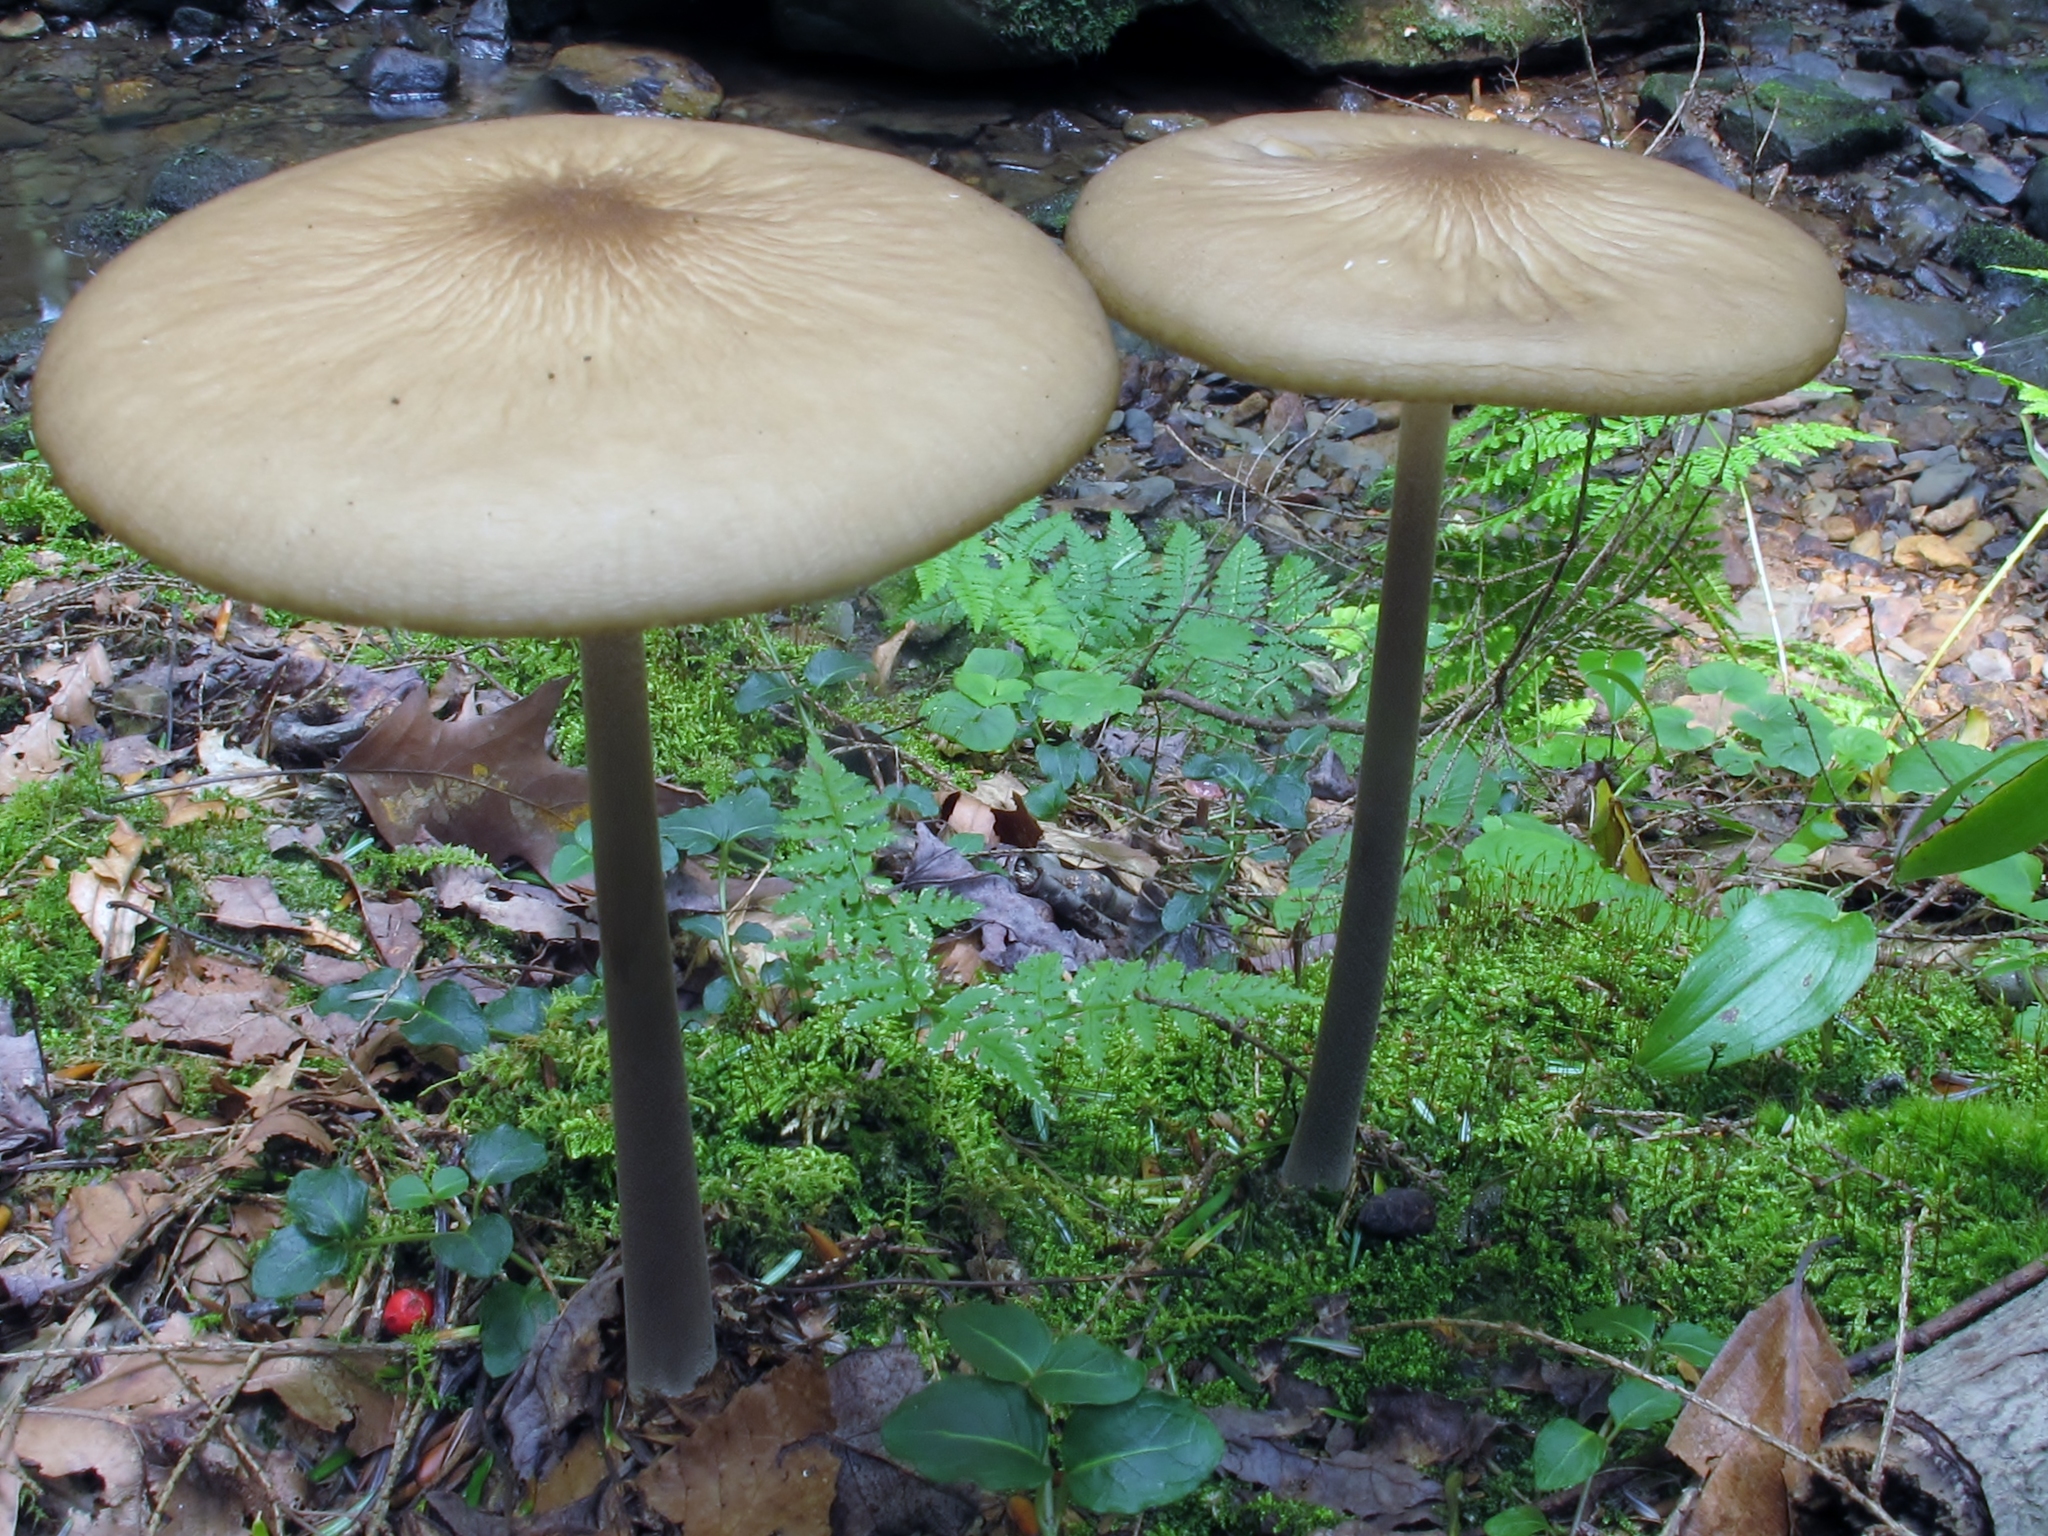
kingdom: Fungi
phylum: Basidiomycota
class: Agaricomycetes
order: Agaricales
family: Physalacriaceae
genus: Hymenopellis
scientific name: Hymenopellis furfuracea
